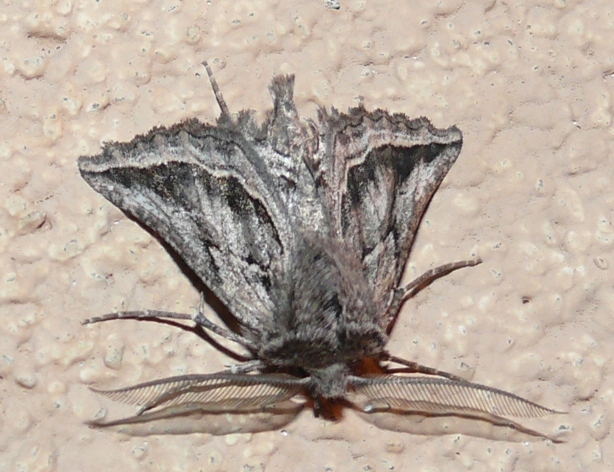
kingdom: Animalia
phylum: Arthropoda
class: Insecta
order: Lepidoptera
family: Geometridae
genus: Axiodes
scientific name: Axiodes
